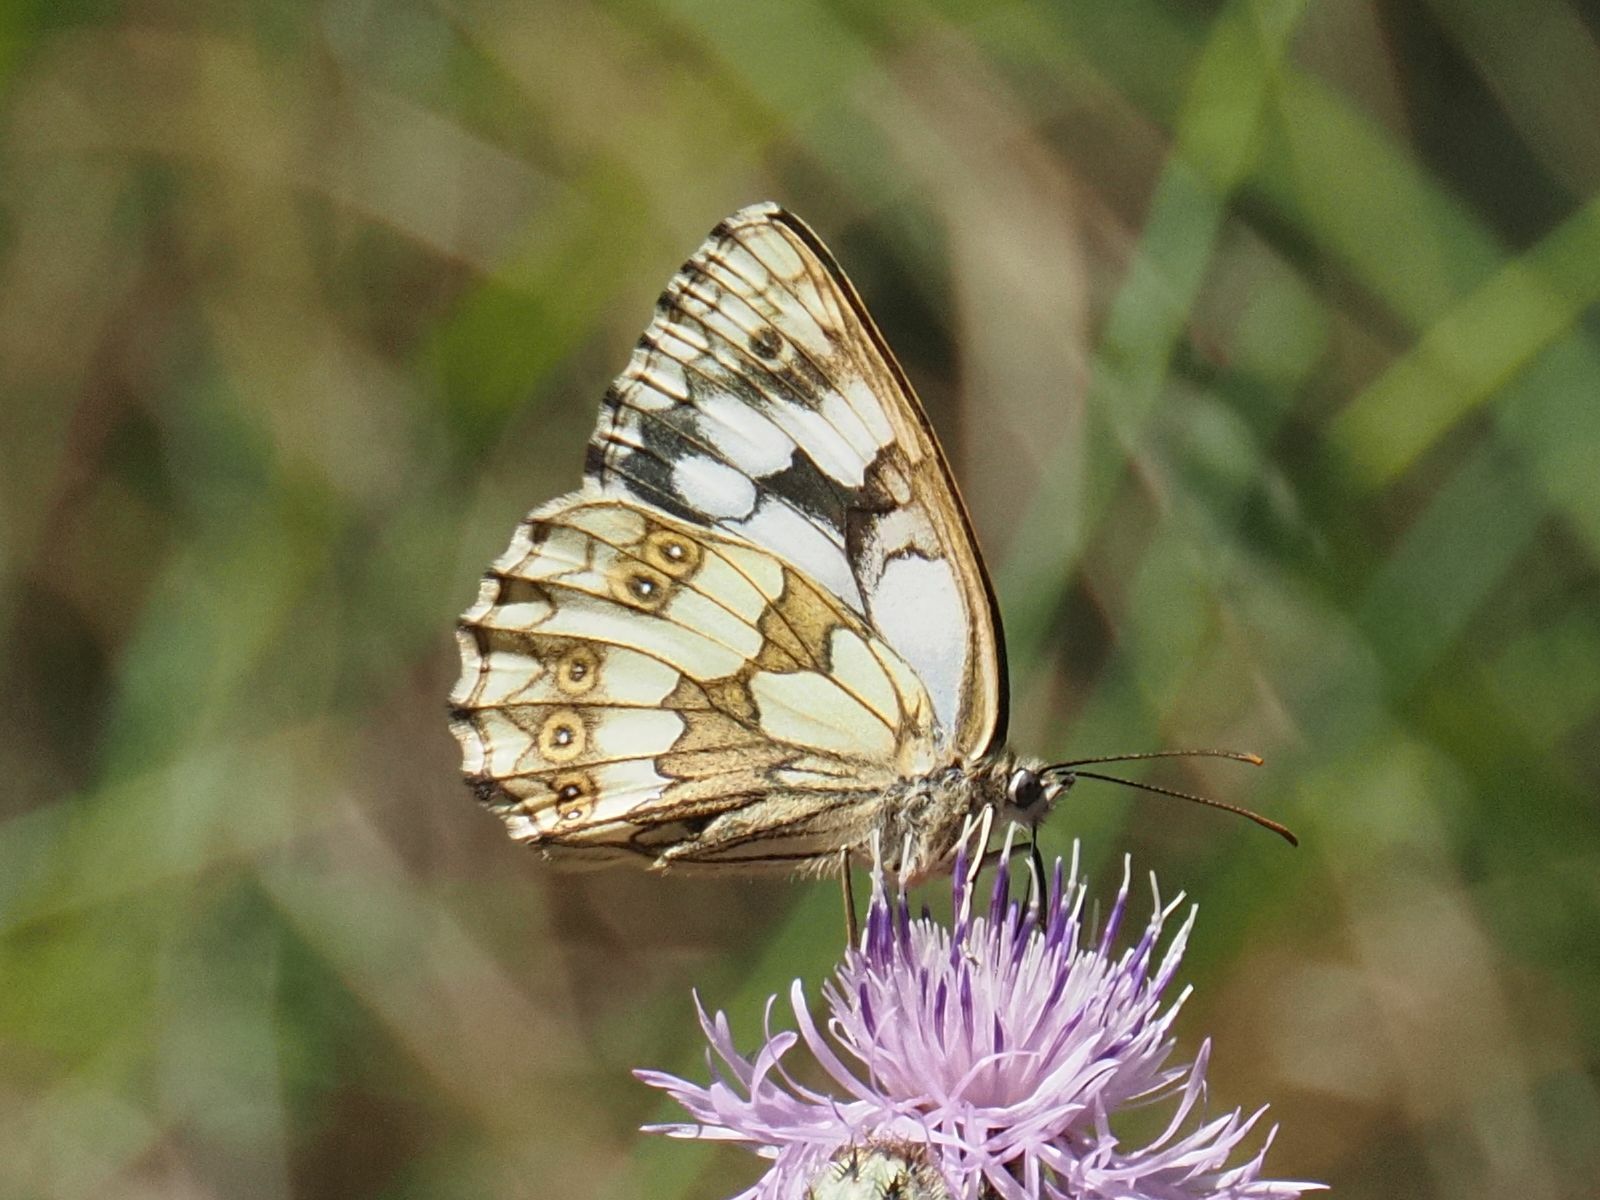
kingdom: Animalia
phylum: Arthropoda
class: Insecta
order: Lepidoptera
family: Nymphalidae
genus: Melanargia
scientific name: Melanargia galathea
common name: Marbled white
